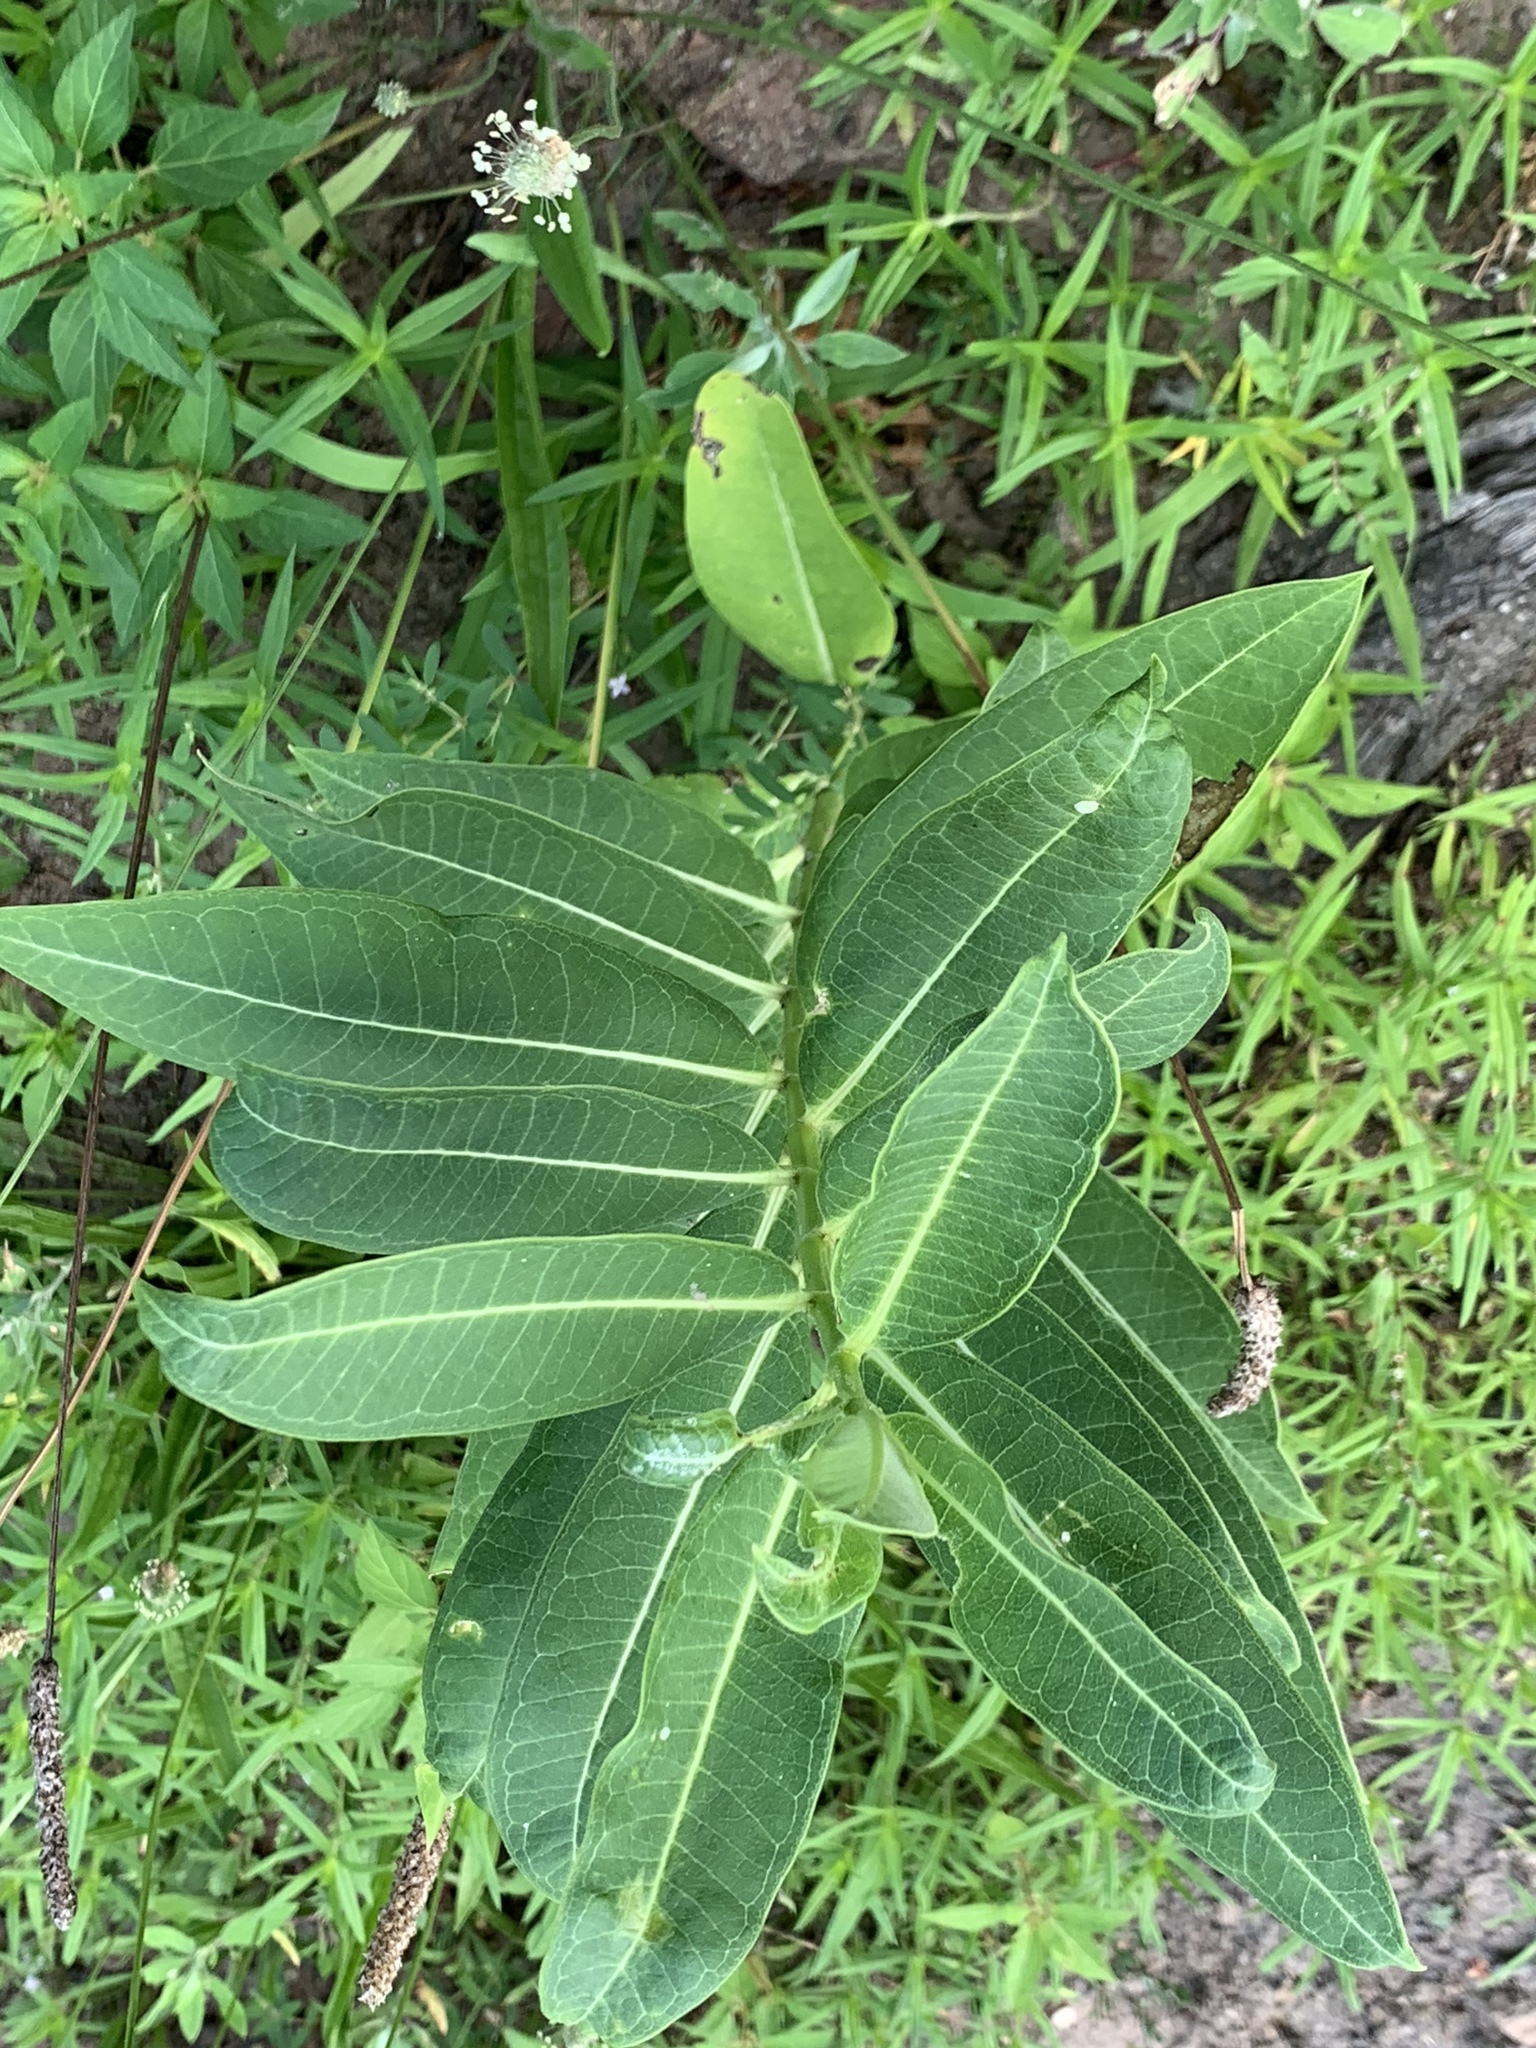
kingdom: Plantae
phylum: Tracheophyta
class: Magnoliopsida
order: Gentianales
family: Apocynaceae
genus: Asclepias
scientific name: Asclepias syriaca
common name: Common milkweed
